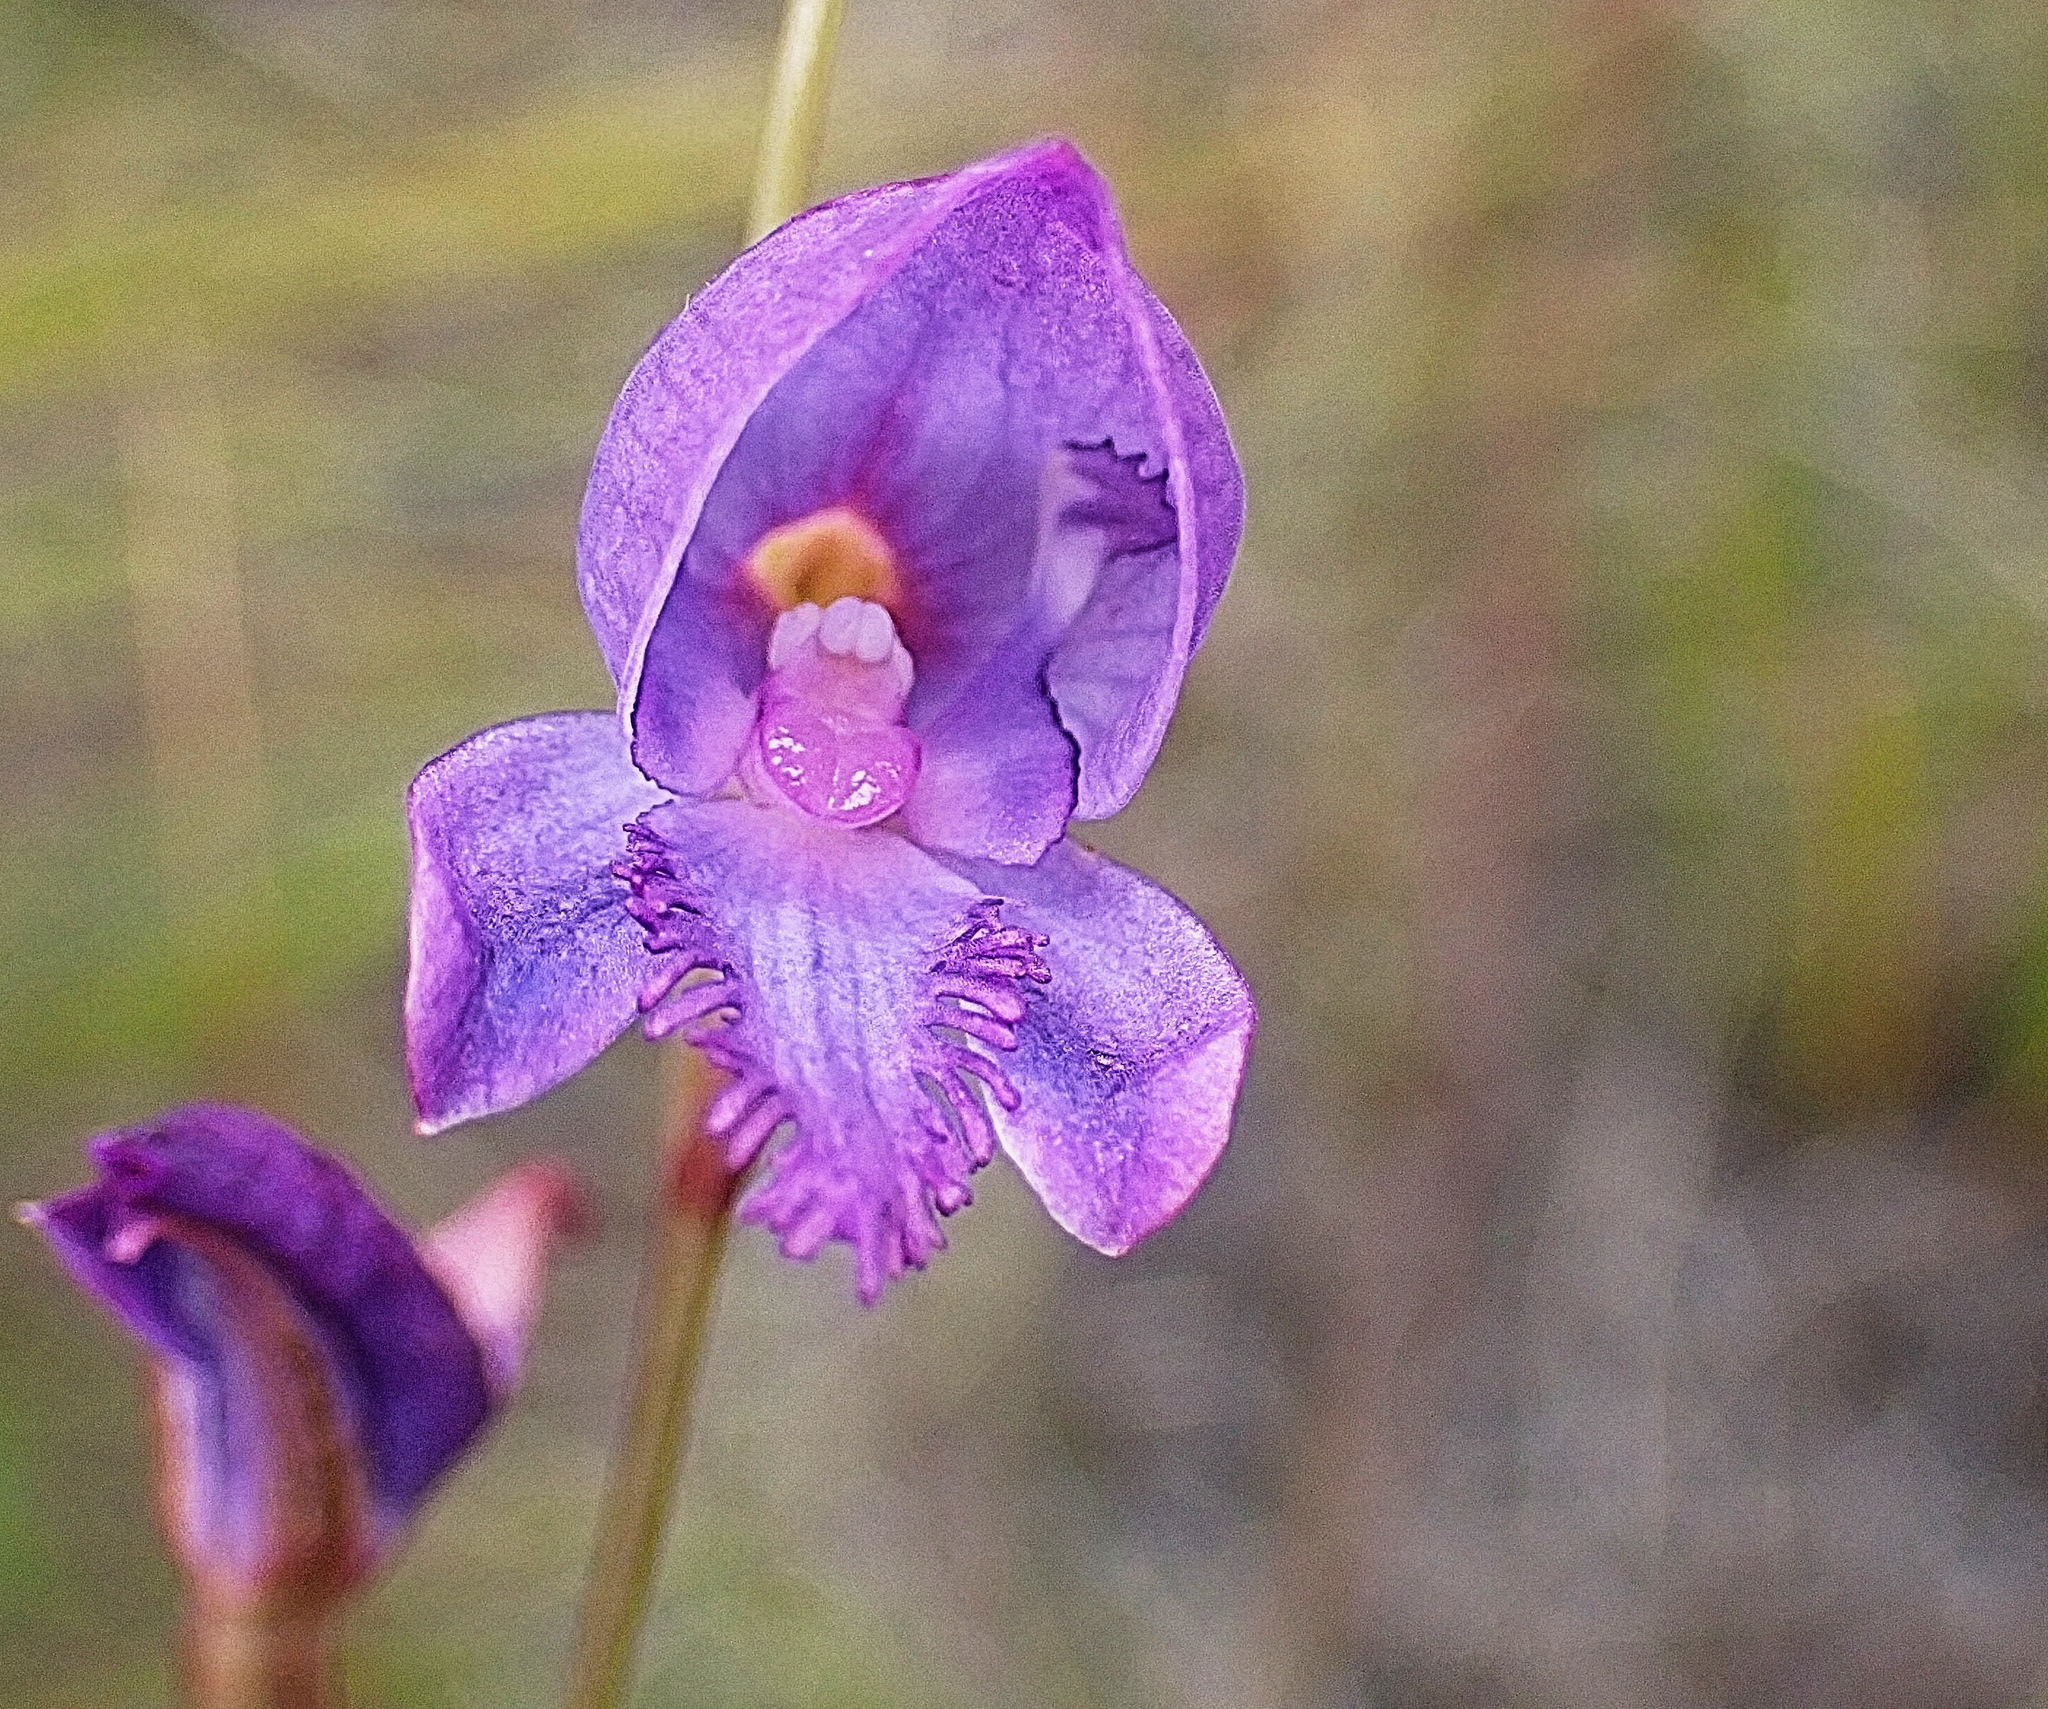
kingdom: Plantae
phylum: Tracheophyta
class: Liliopsida
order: Asparagales
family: Orchidaceae
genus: Disa
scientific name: Disa hians
